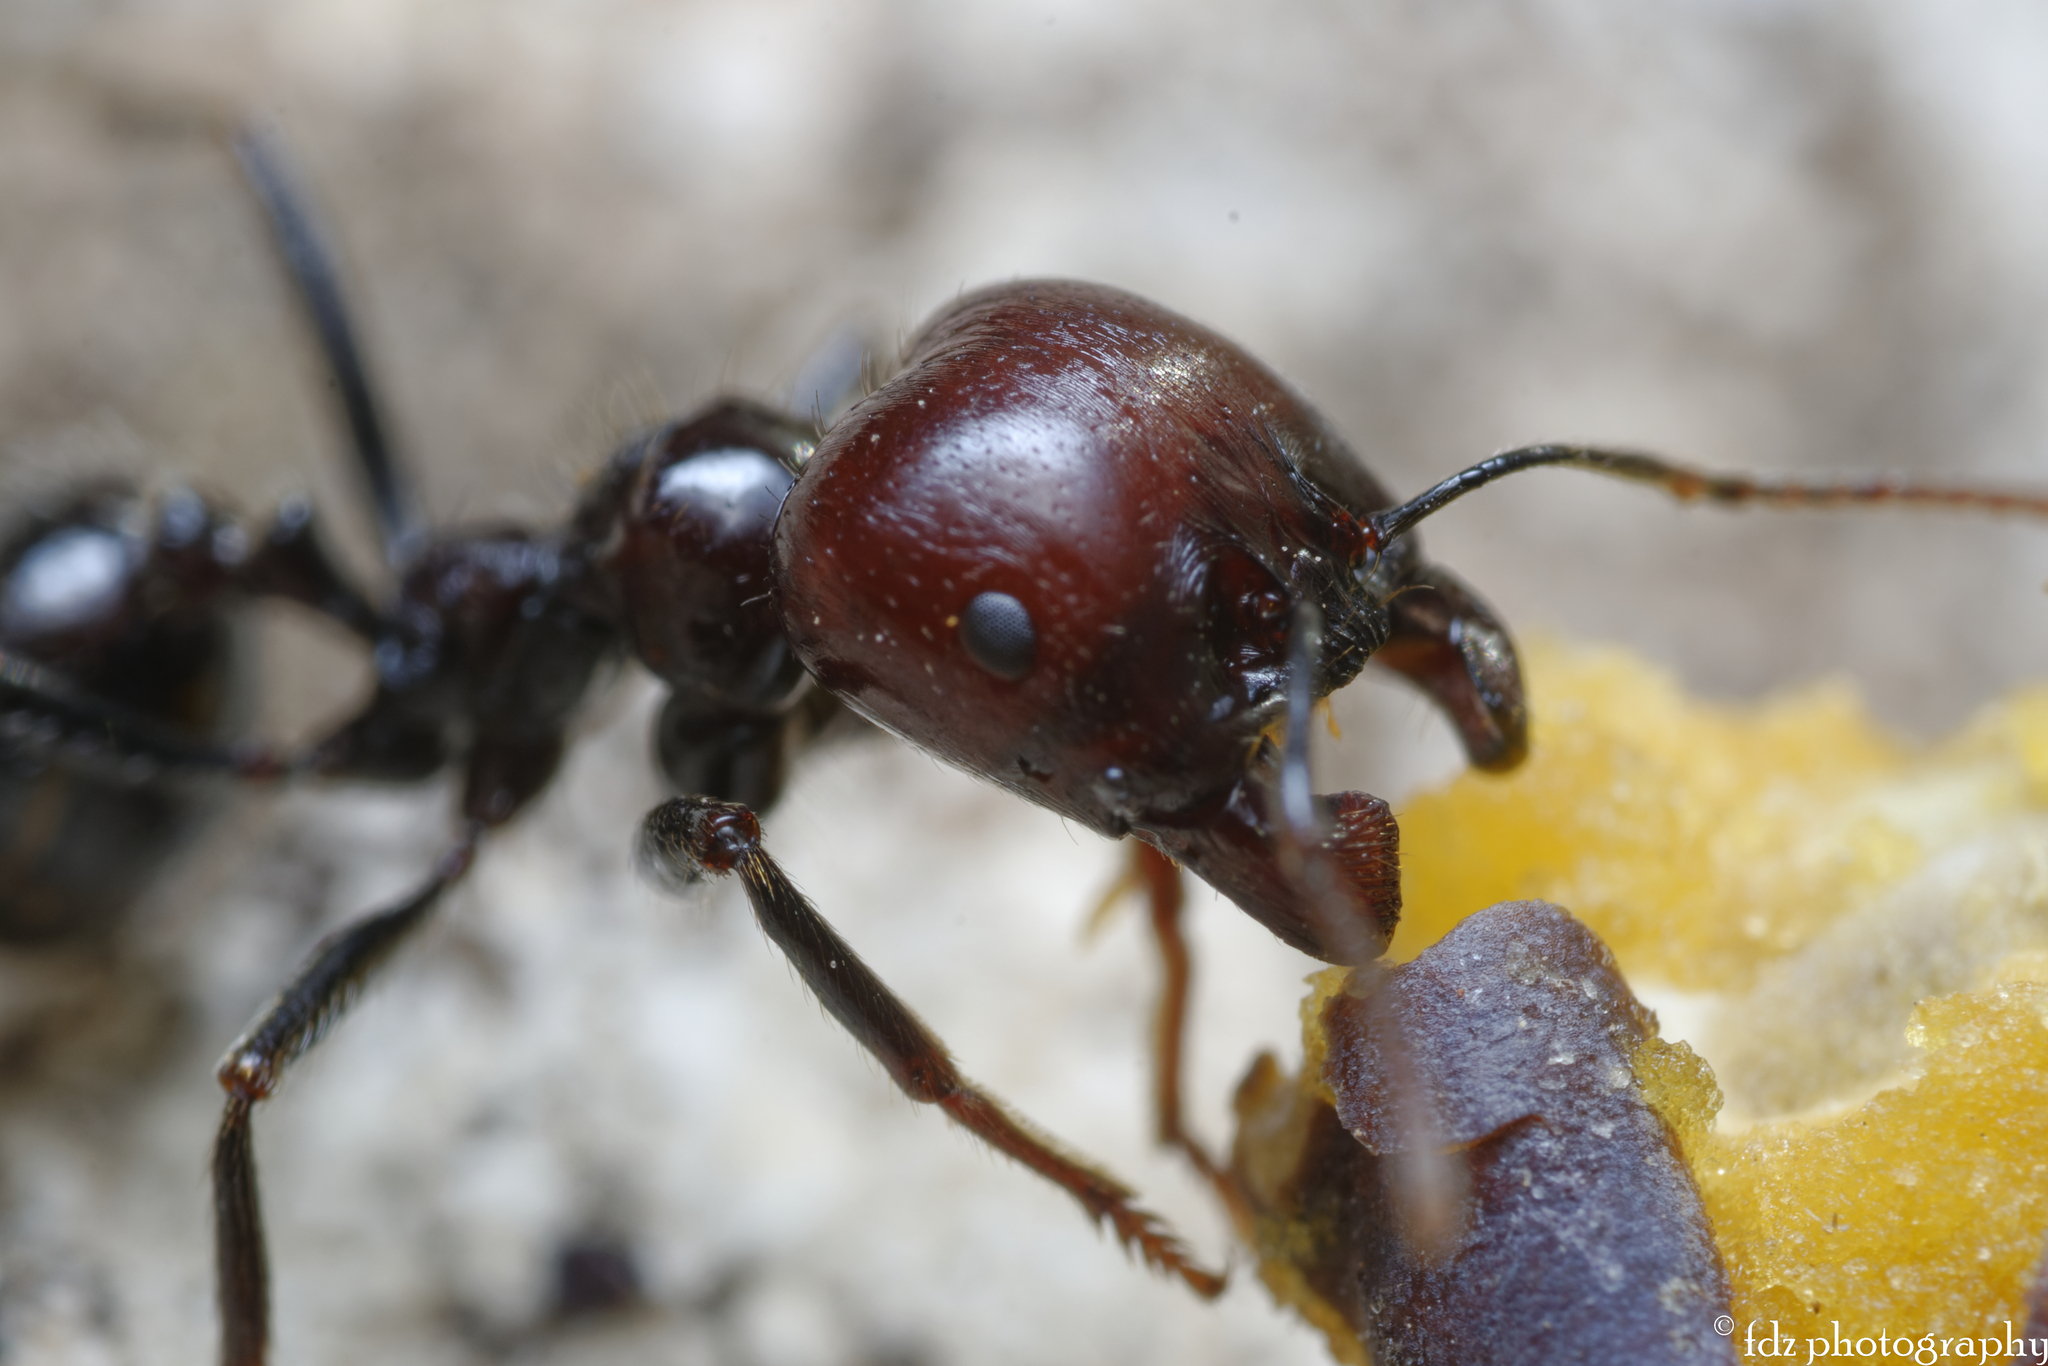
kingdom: Animalia
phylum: Arthropoda
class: Insecta
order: Hymenoptera
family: Formicidae
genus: Messor
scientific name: Messor barbarus
